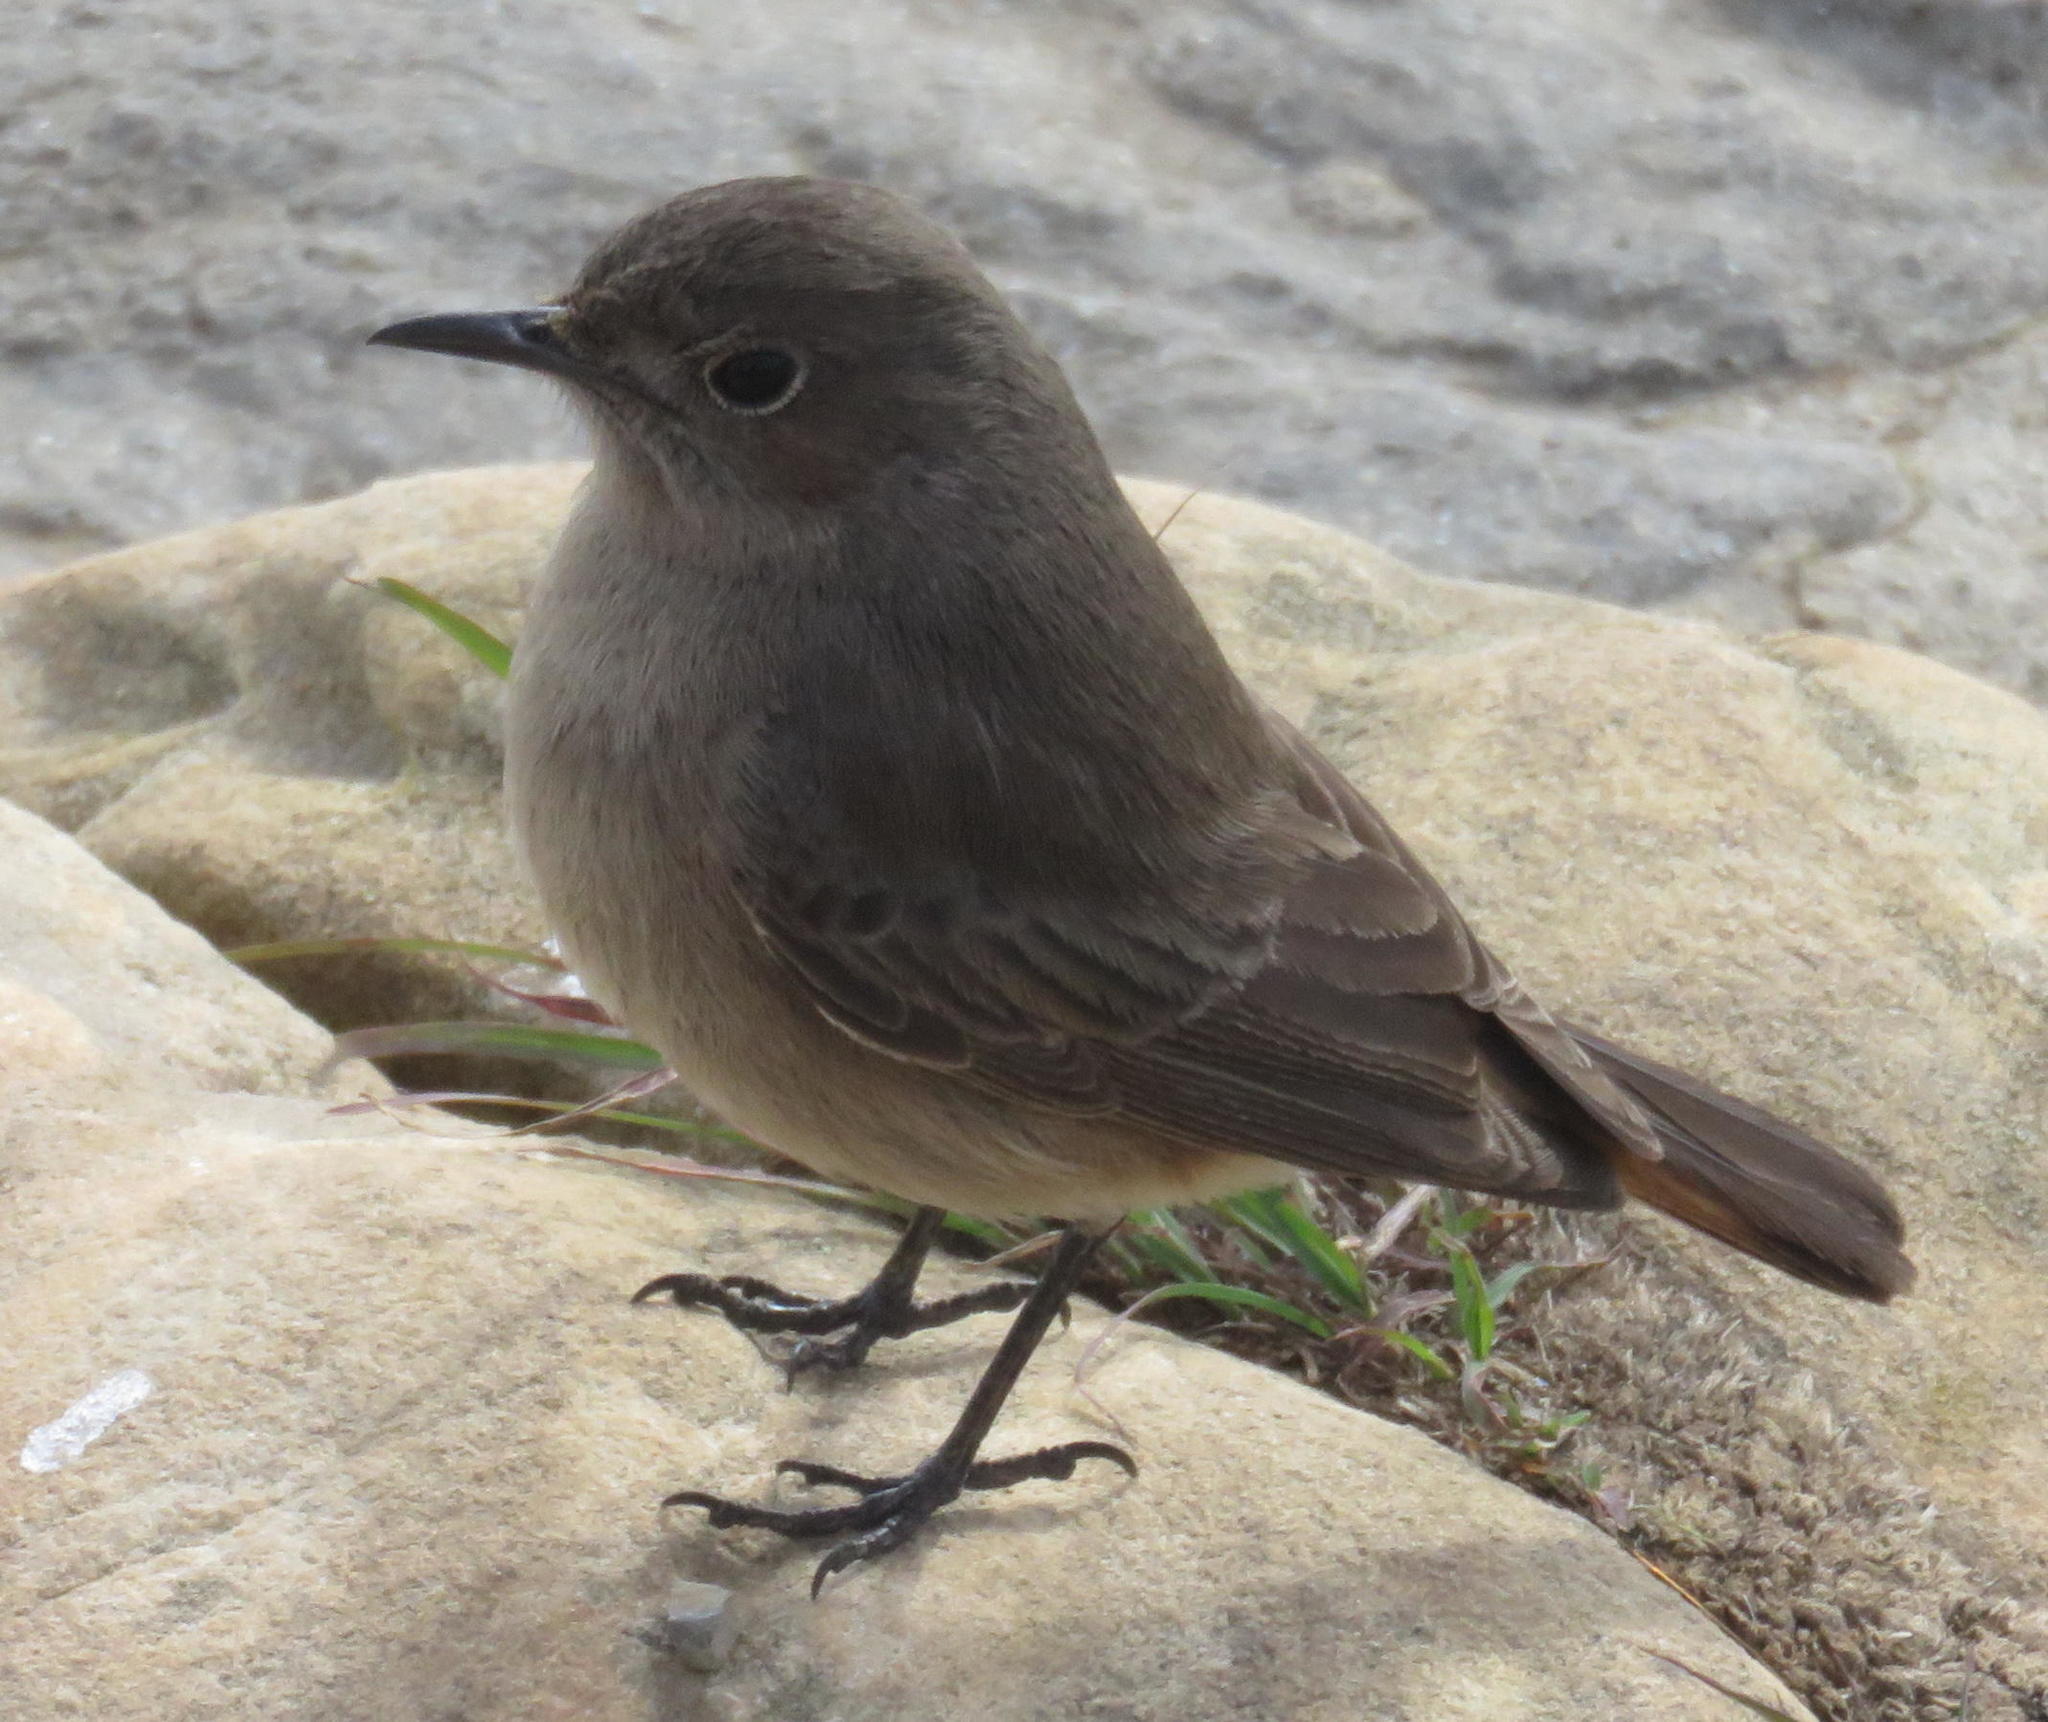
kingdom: Animalia
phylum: Chordata
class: Aves
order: Passeriformes
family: Muscicapidae
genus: Oenanthe
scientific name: Oenanthe familiaris
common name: Familiar chat
